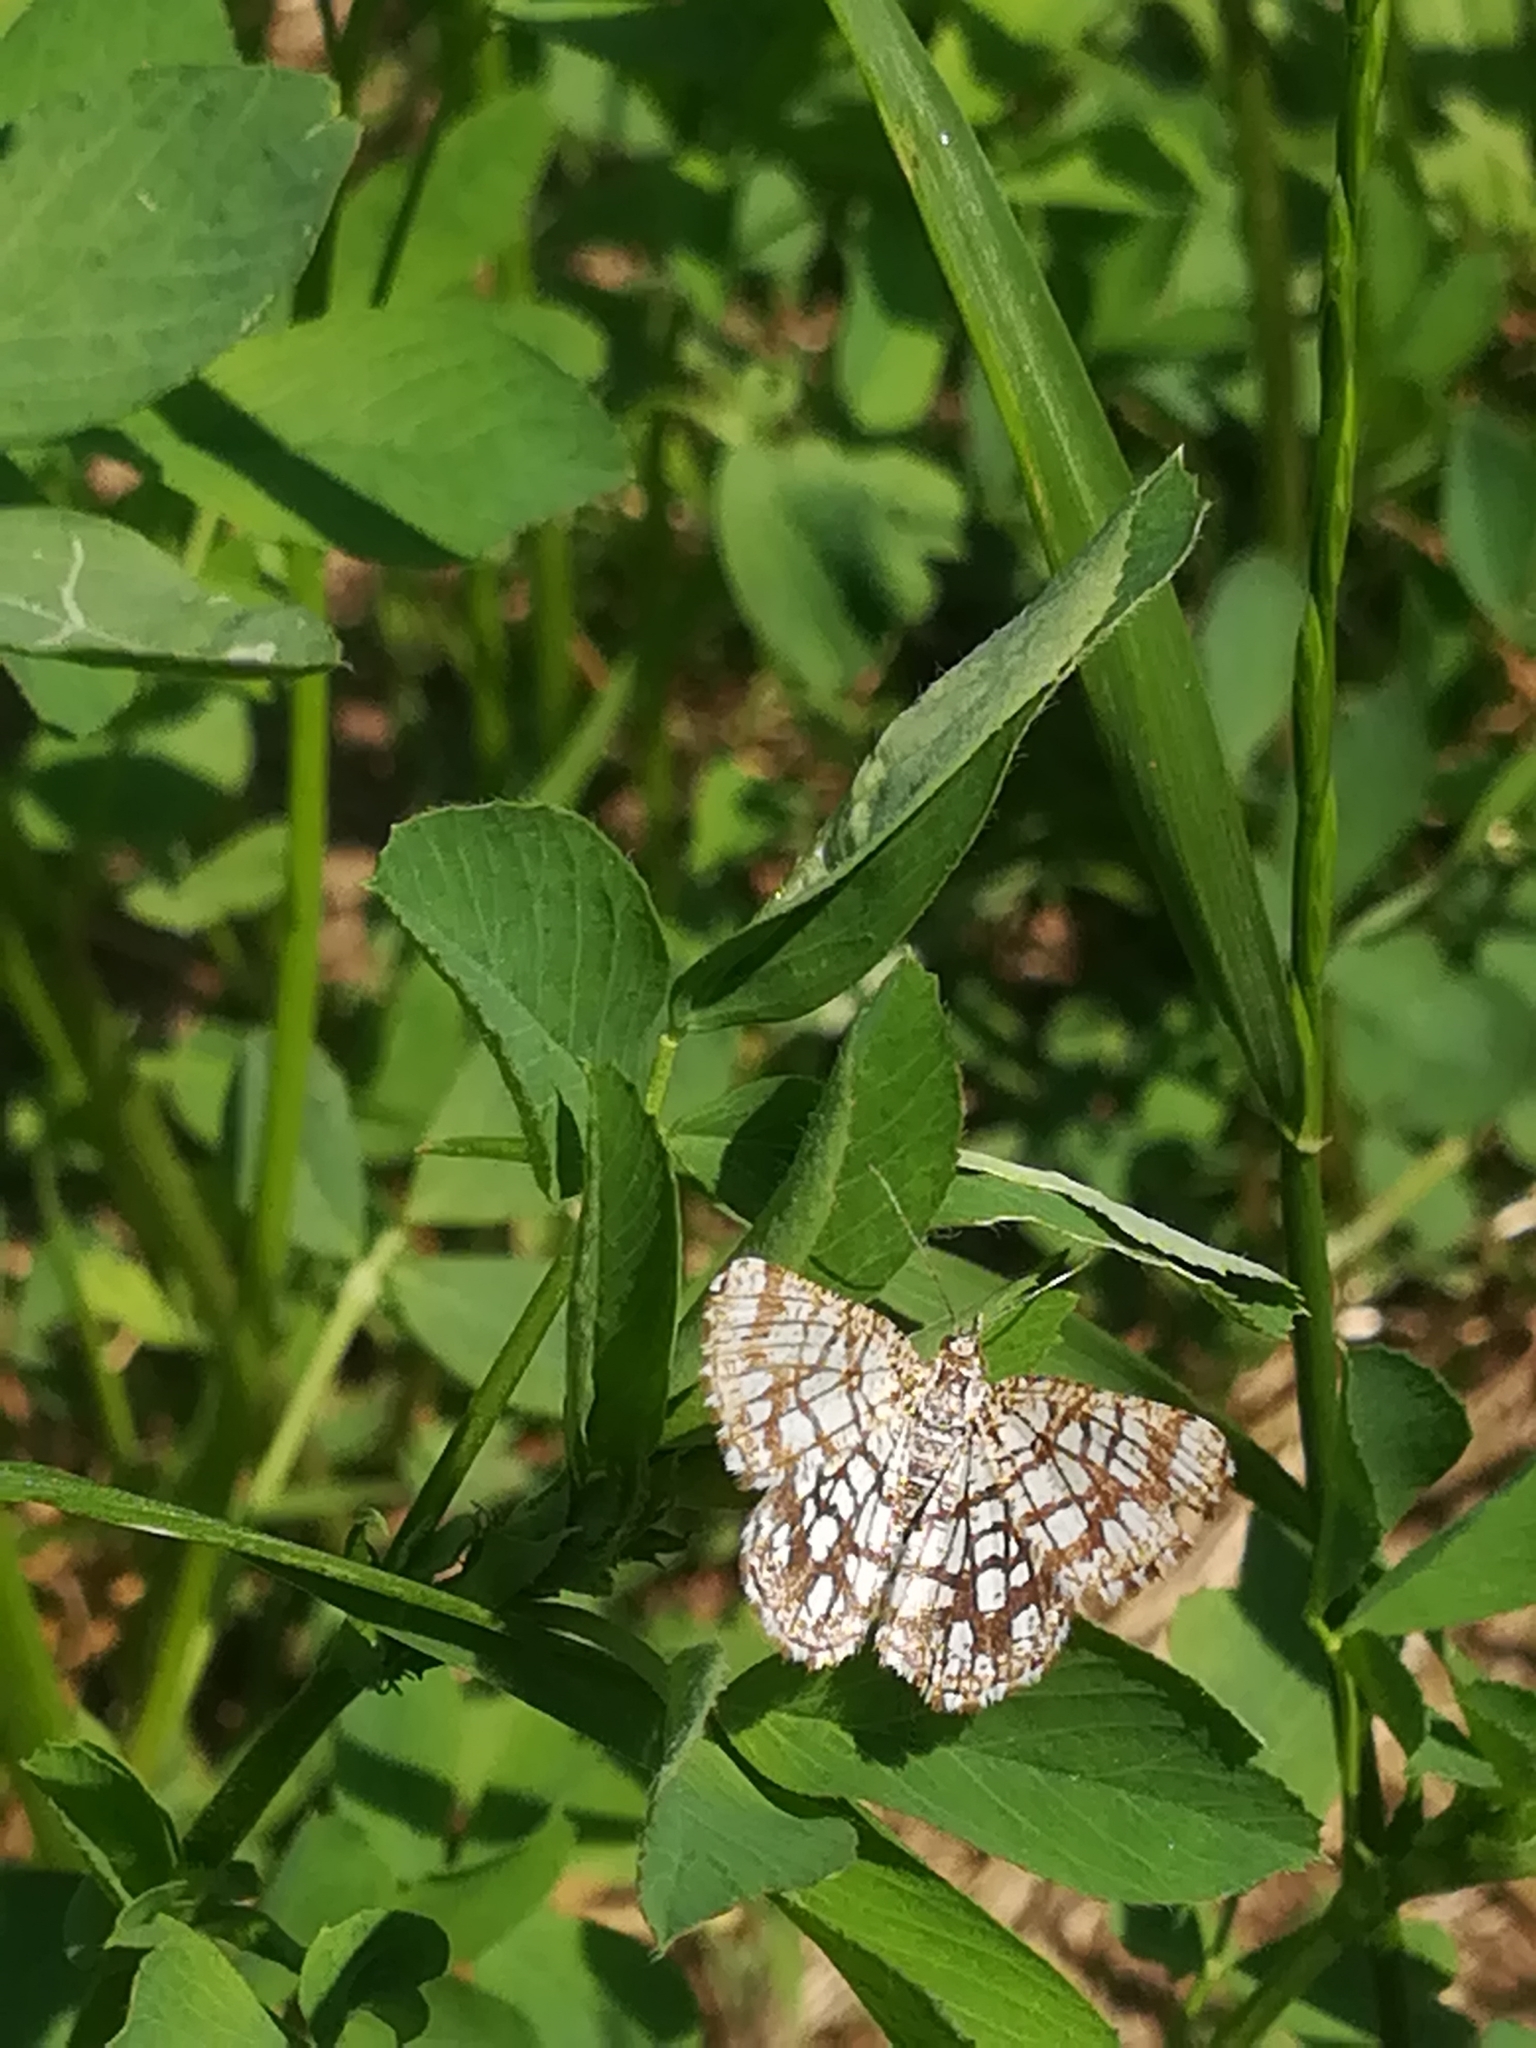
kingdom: Animalia
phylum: Arthropoda
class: Insecta
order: Lepidoptera
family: Geometridae
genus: Chiasmia
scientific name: Chiasmia clathrata
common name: Latticed heath
